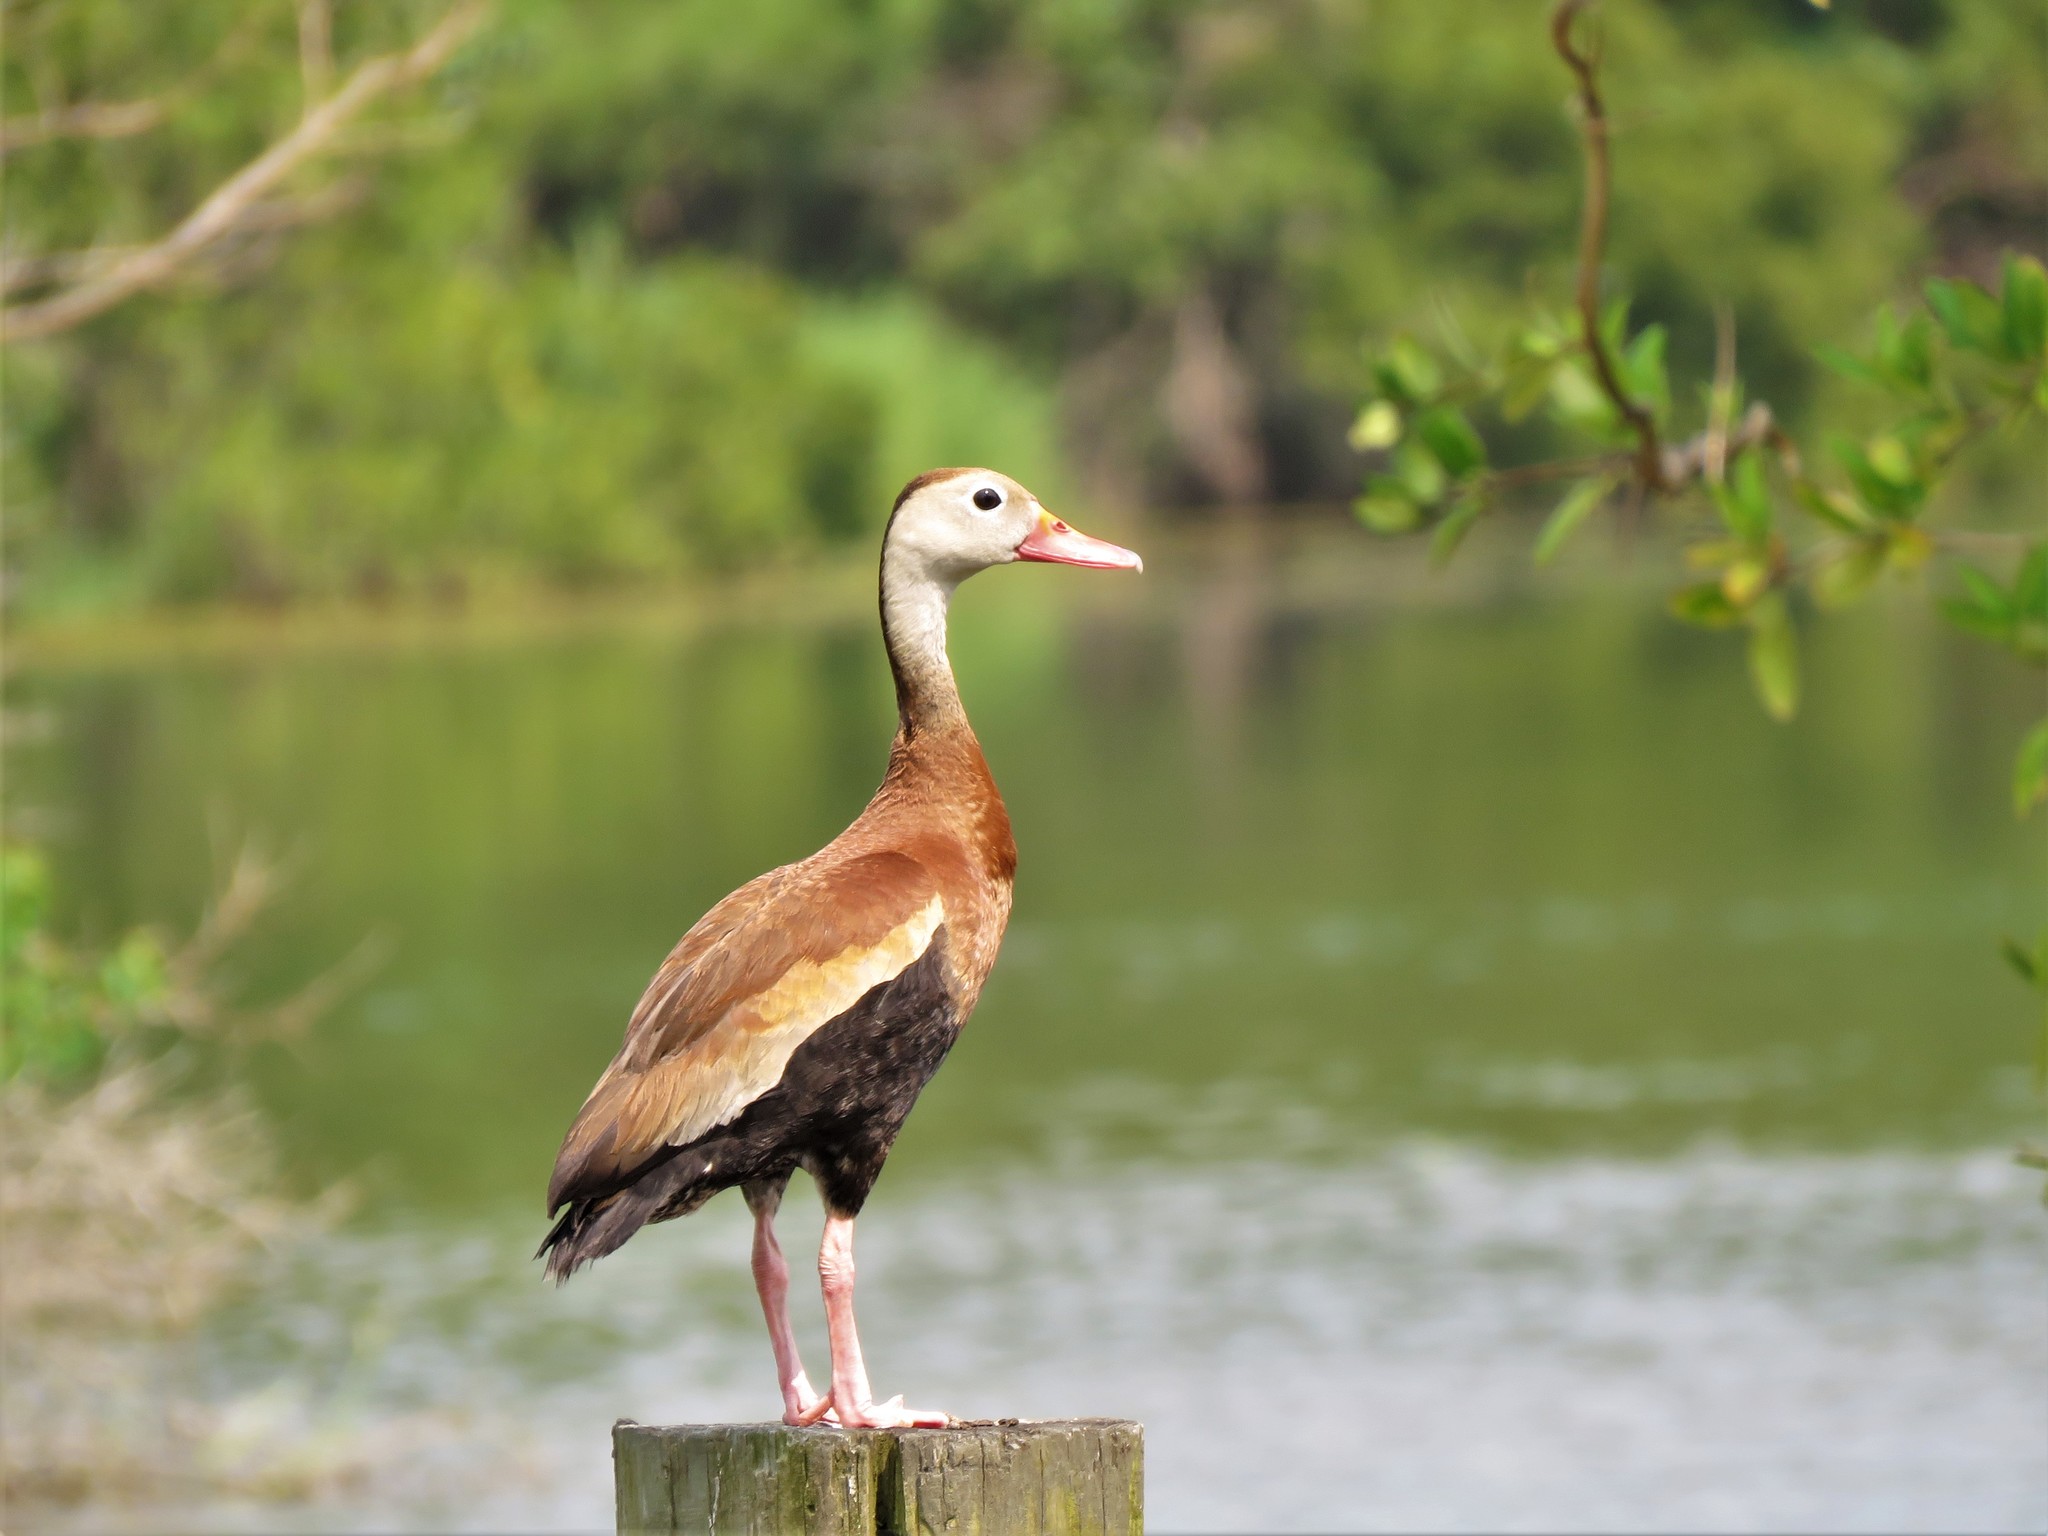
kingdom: Animalia
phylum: Chordata
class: Aves
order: Anseriformes
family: Anatidae
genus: Dendrocygna
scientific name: Dendrocygna autumnalis
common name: Black-bellied whistling duck
